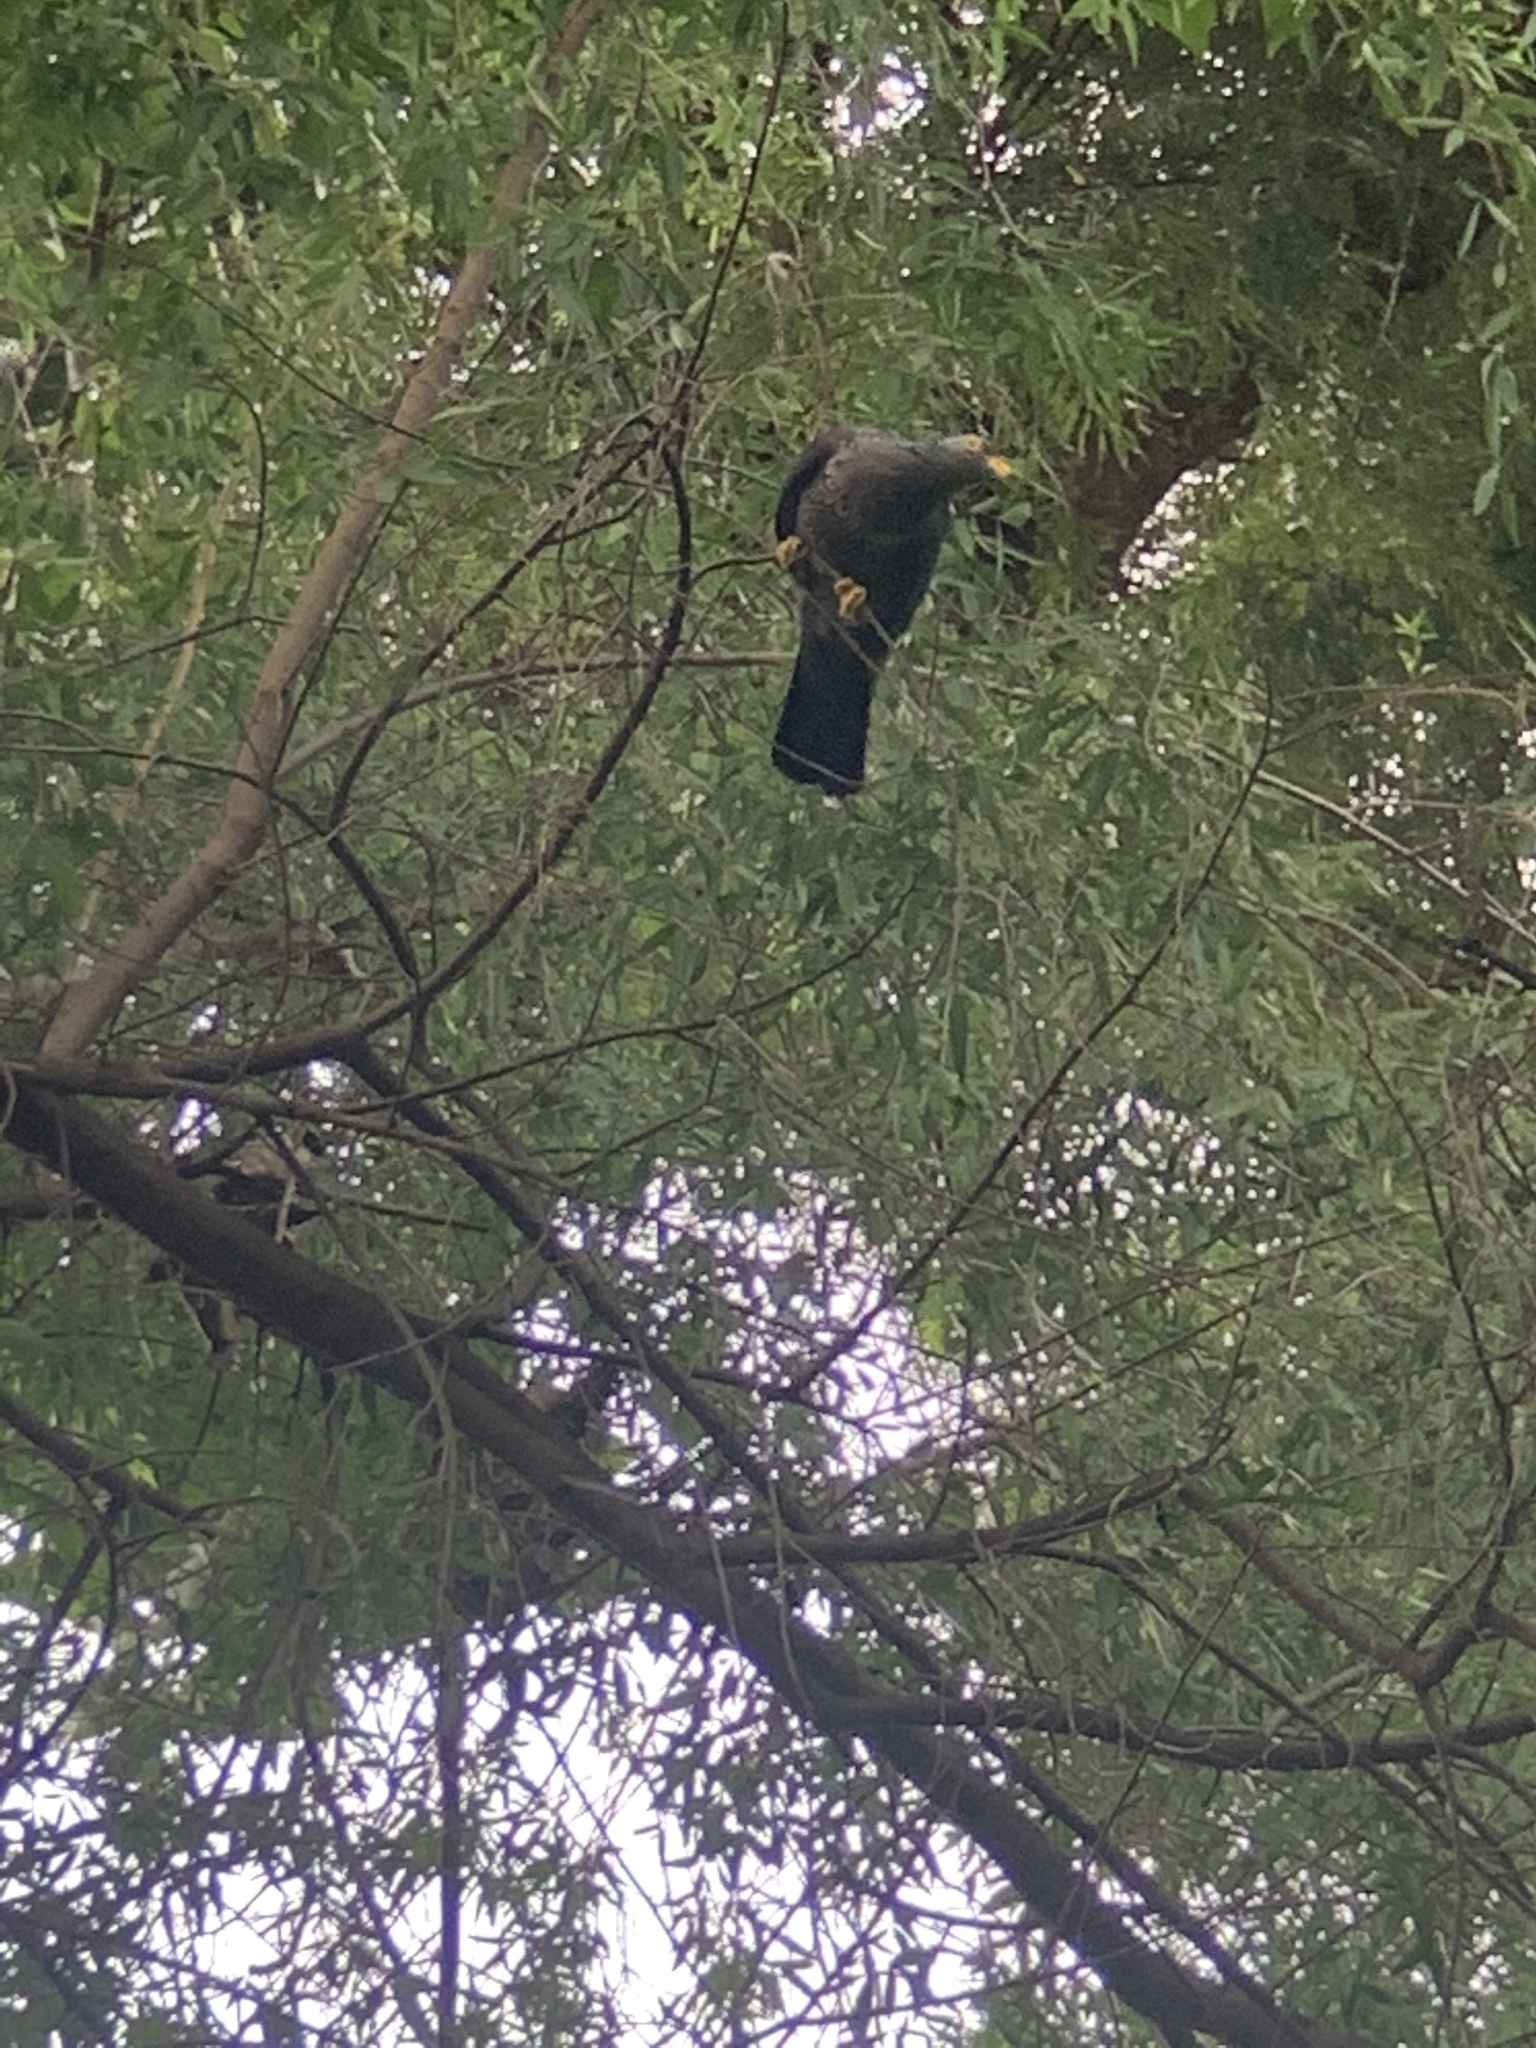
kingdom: Animalia
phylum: Chordata
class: Aves
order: Columbiformes
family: Columbidae
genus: Columba
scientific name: Columba arquatrix
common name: African olive pigeon
